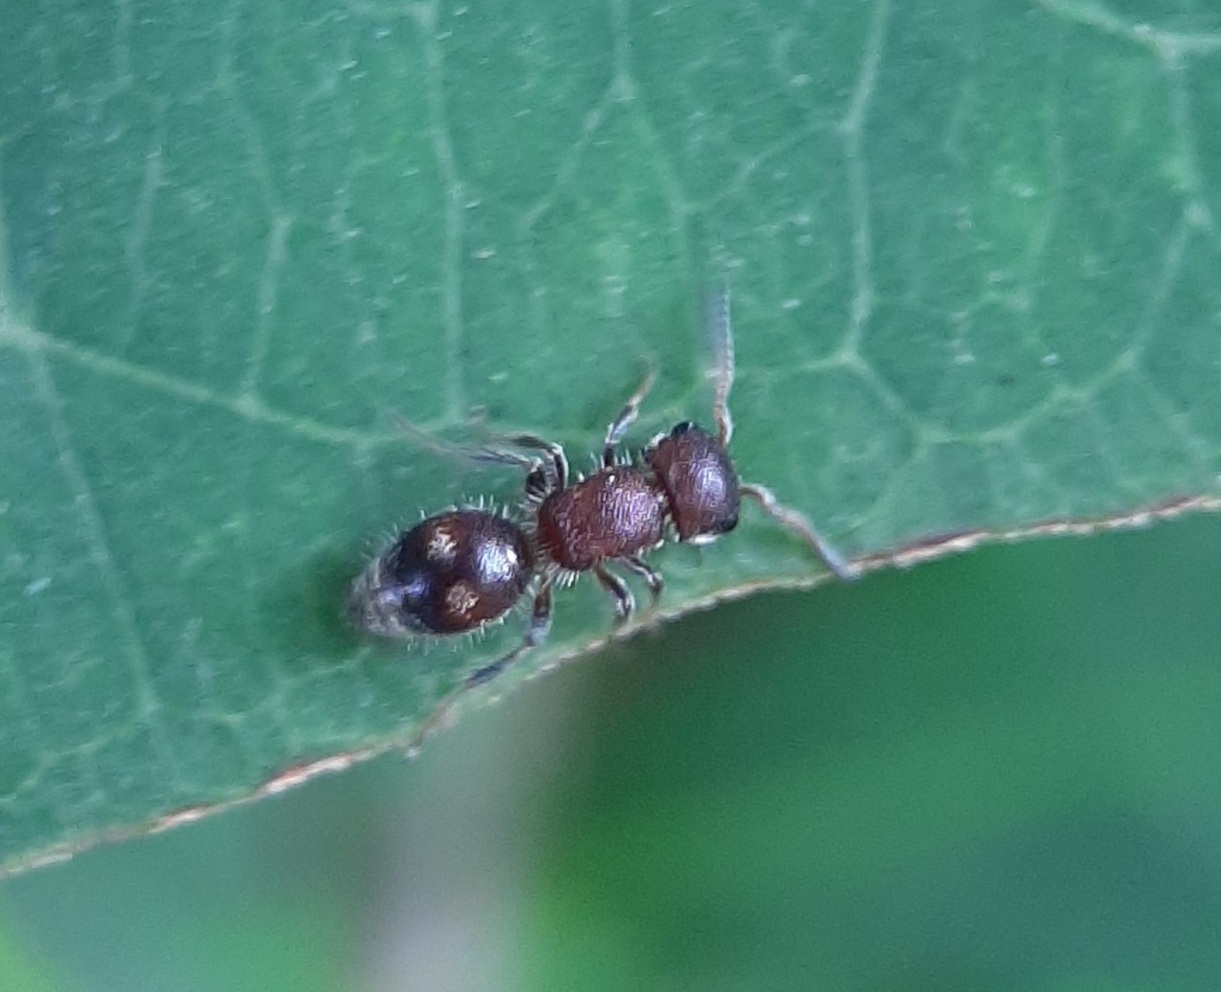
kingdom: Animalia
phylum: Arthropoda
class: Insecta
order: Hymenoptera
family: Mutillidae
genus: Pseudomethoca
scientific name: Pseudomethoca
